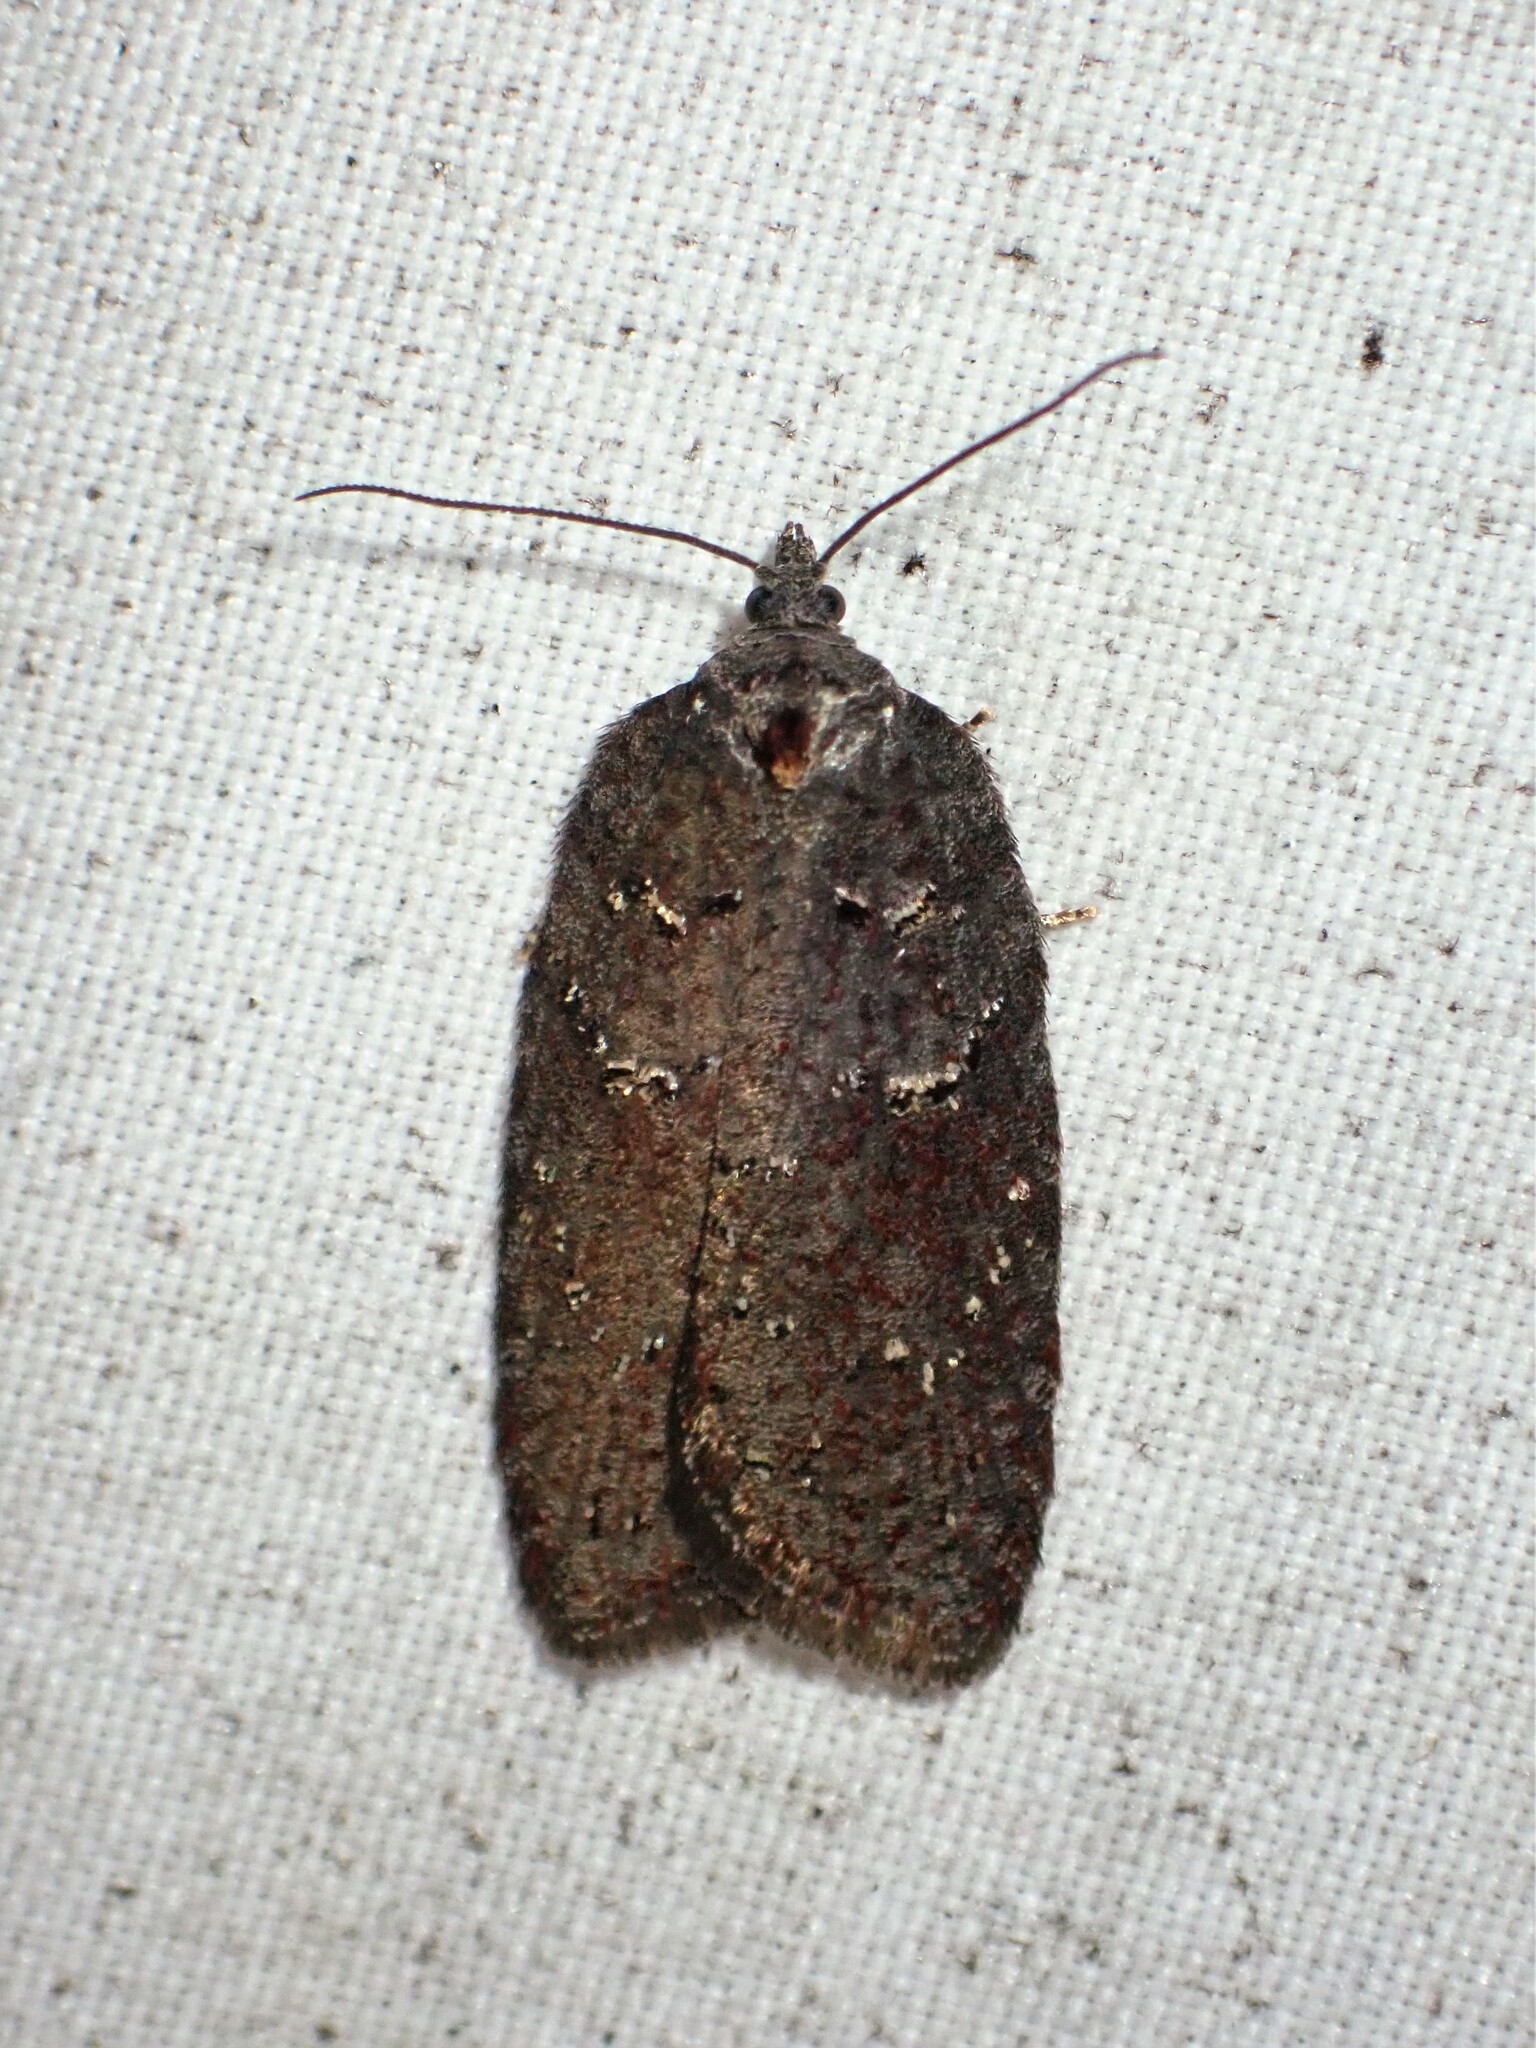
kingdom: Animalia
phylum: Arthropoda
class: Insecta
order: Lepidoptera
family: Tortricidae
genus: Acleris
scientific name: Acleris caliginosana
